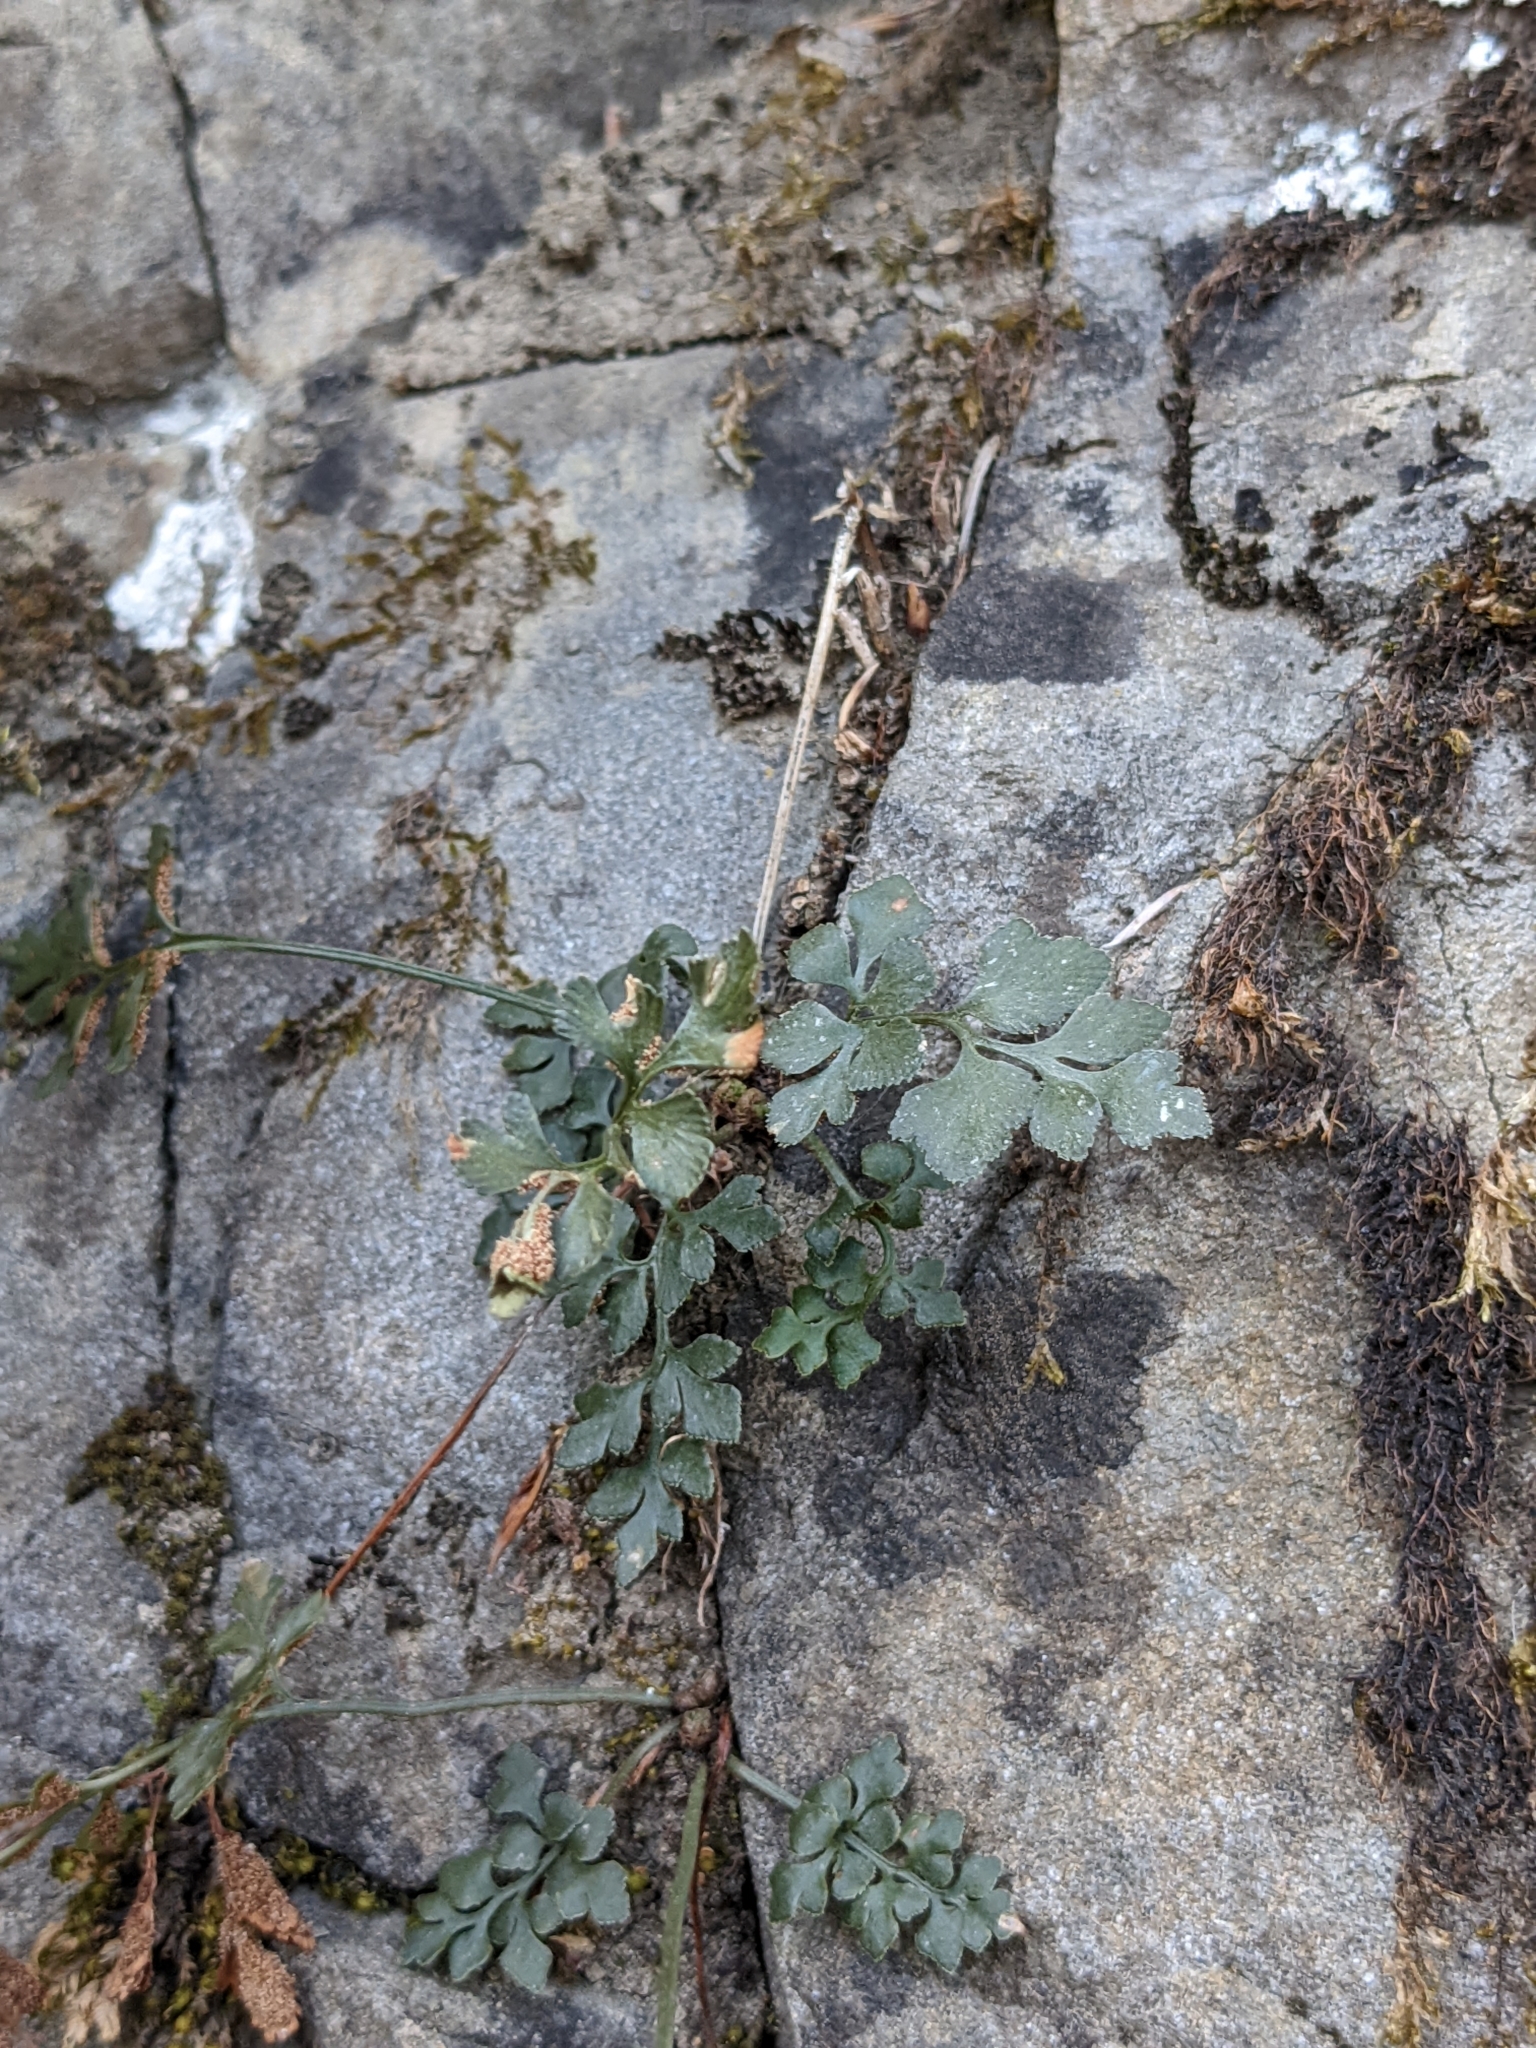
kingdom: Plantae
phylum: Tracheophyta
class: Polypodiopsida
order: Polypodiales
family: Aspleniaceae
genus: Asplenium
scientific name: Asplenium ruta-muraria
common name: Wall-rue
